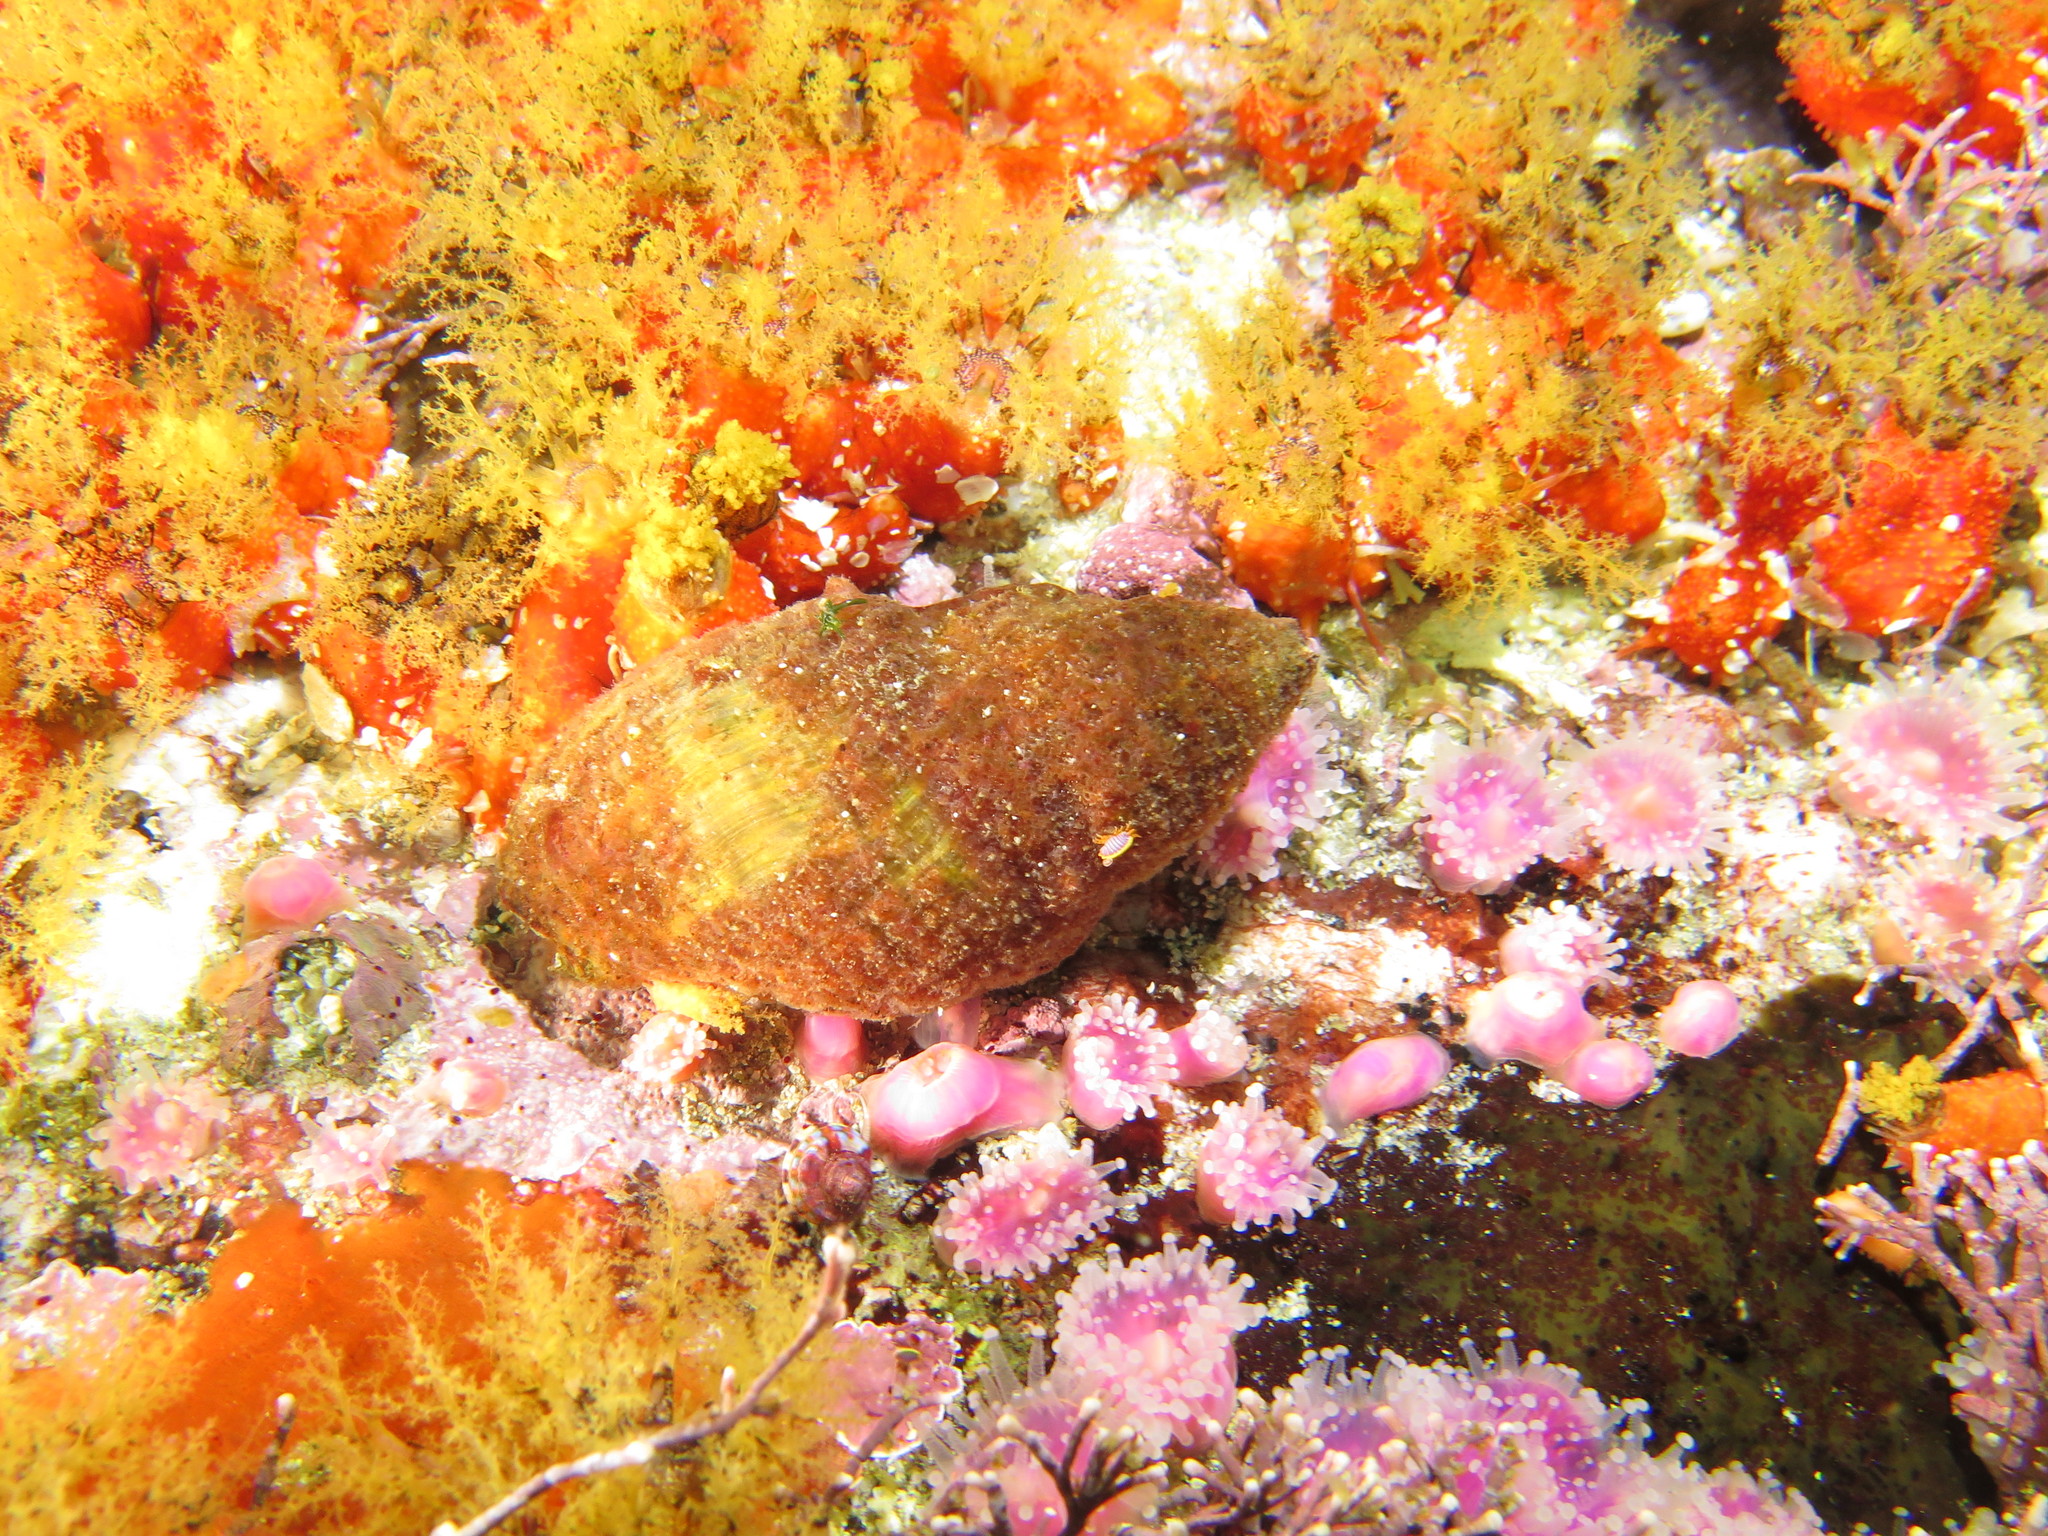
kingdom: Animalia
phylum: Mollusca
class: Gastropoda
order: Neogastropoda
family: Buccinidae
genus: Burnupena
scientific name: Burnupena papyracea
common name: Papery burnupena
